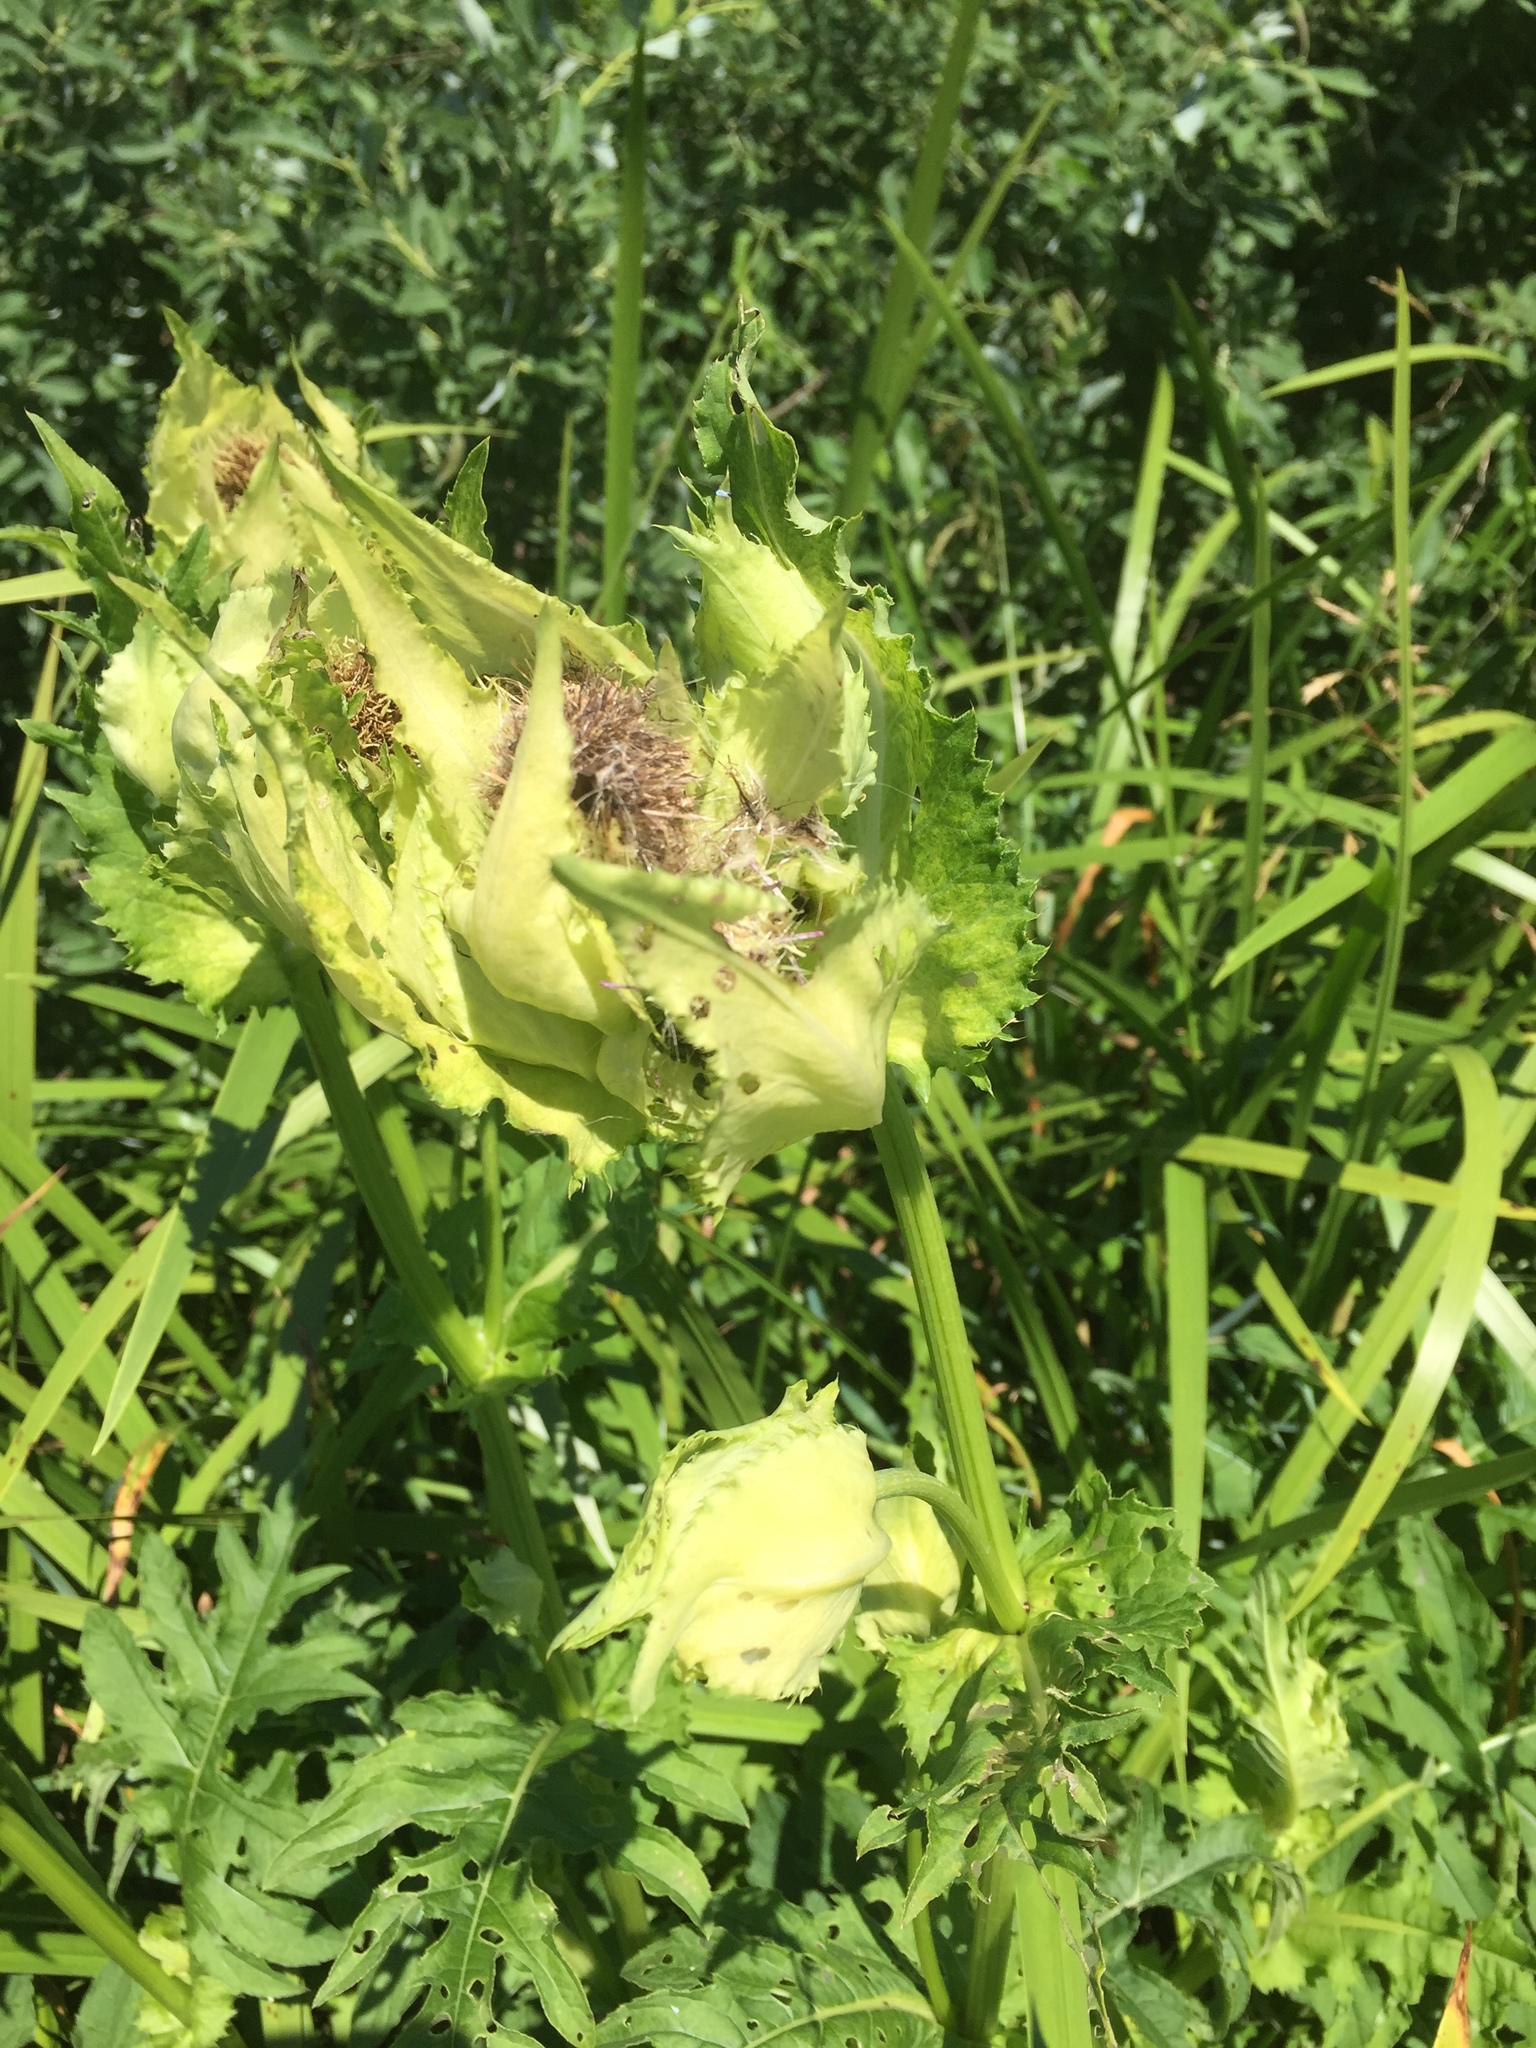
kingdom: Plantae
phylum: Tracheophyta
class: Magnoliopsida
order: Asterales
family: Asteraceae
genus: Cirsium
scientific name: Cirsium oleraceum
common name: Cabbage thistle
